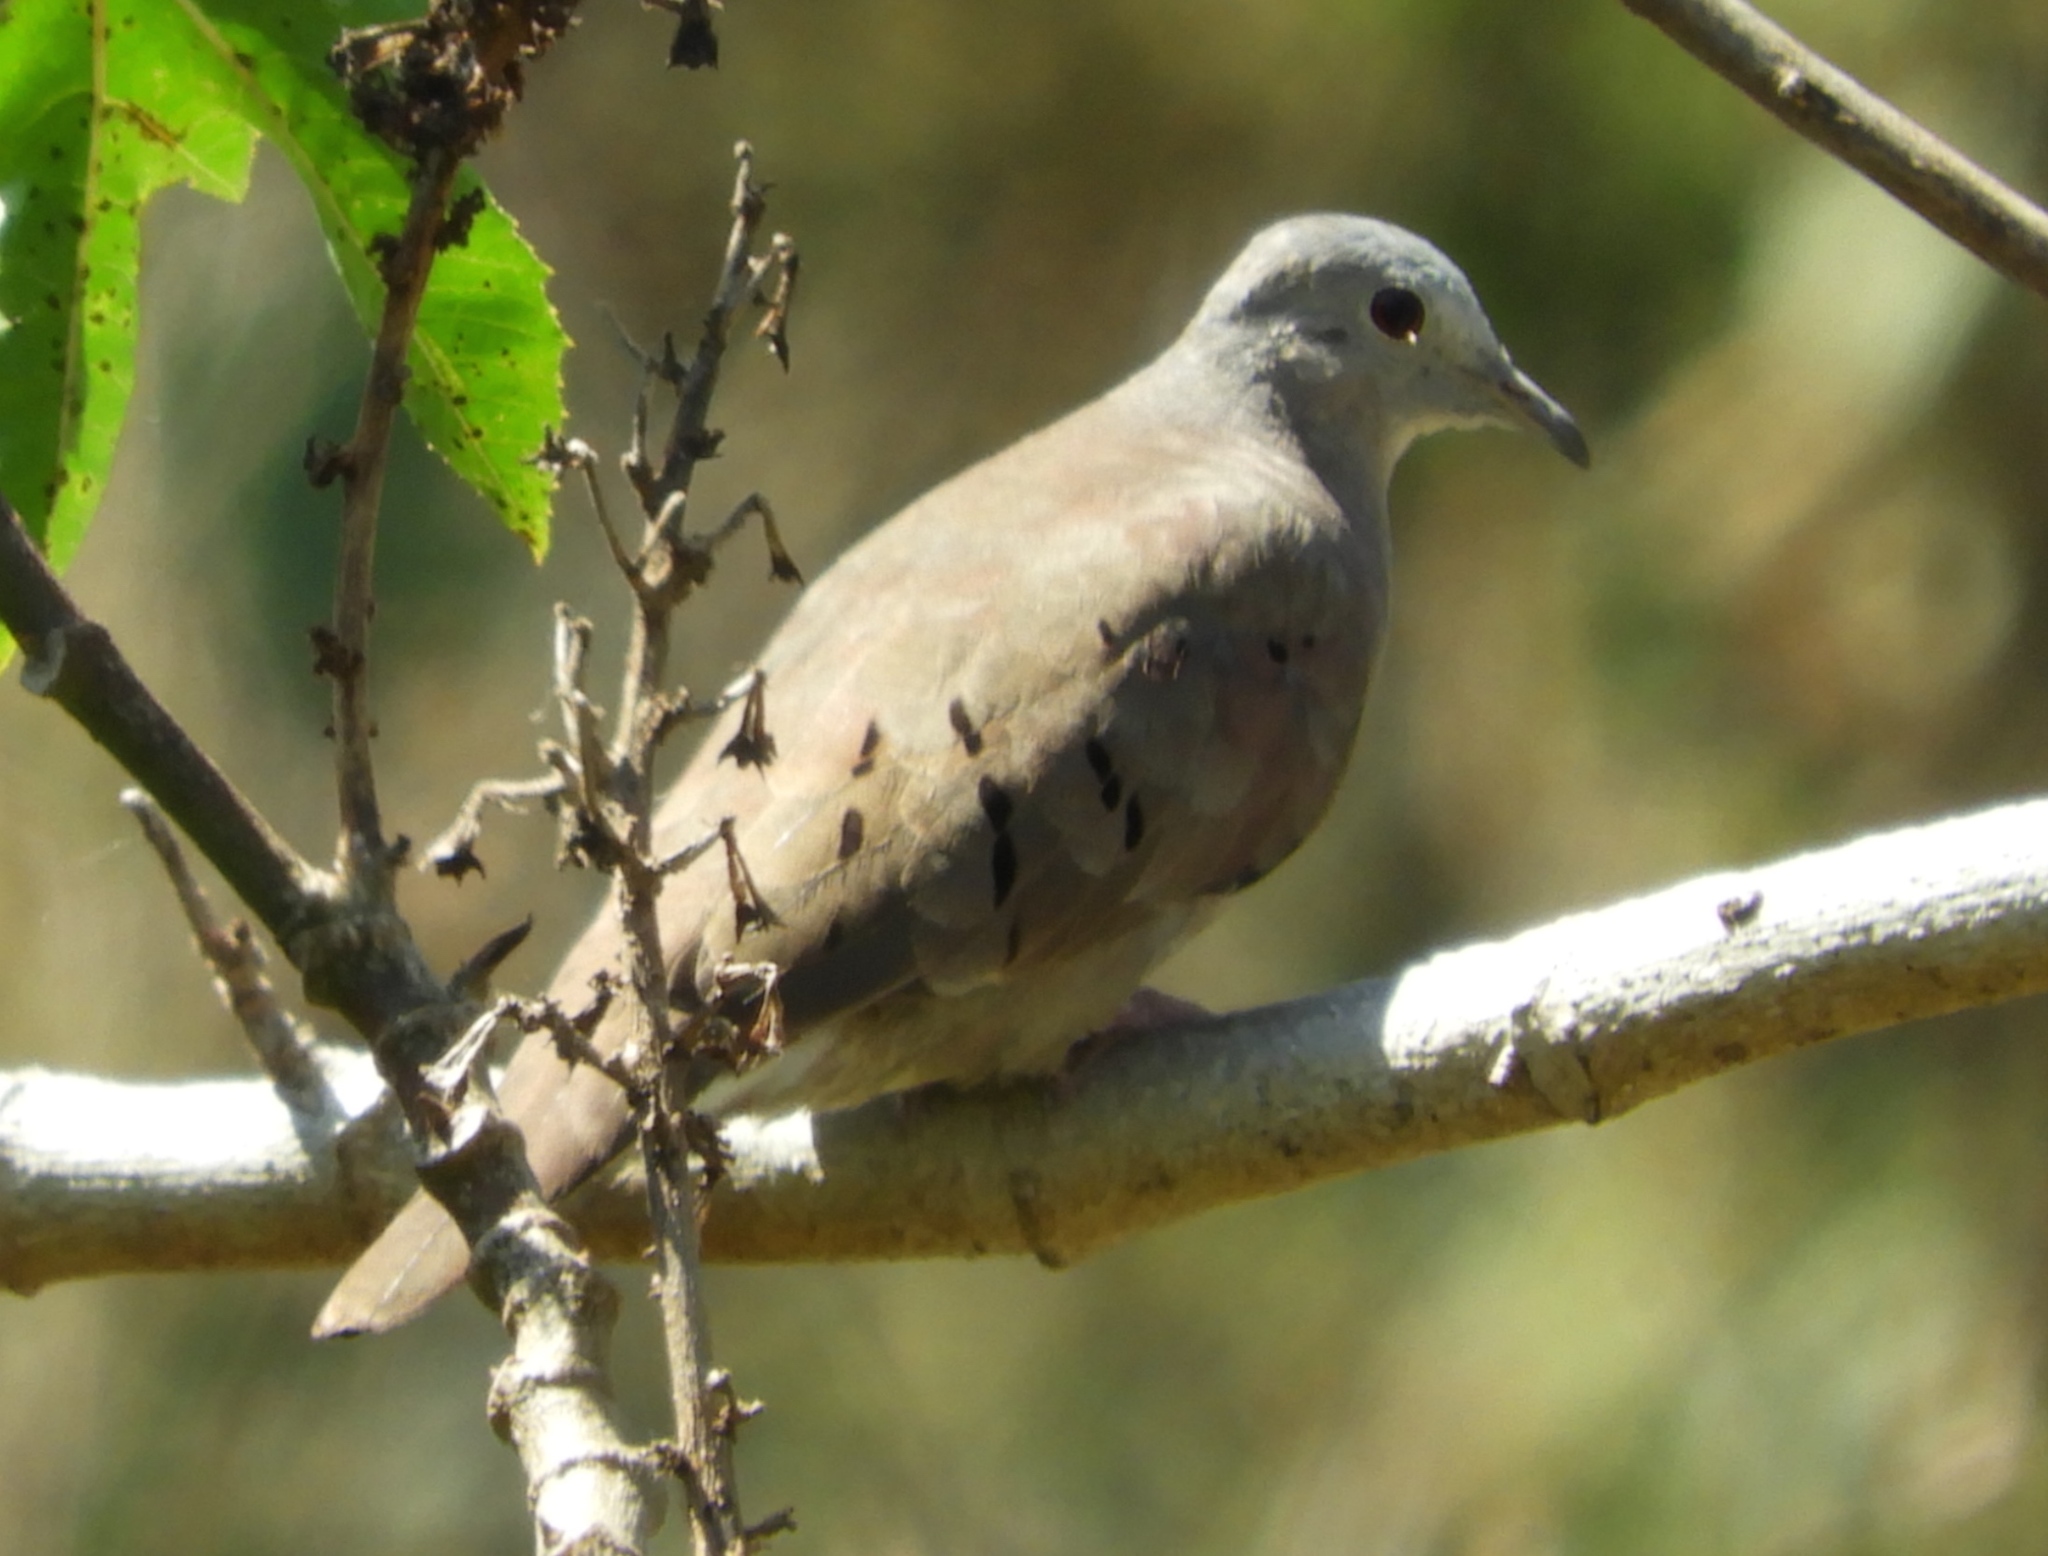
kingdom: Animalia
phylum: Chordata
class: Aves
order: Columbiformes
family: Columbidae
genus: Columbina
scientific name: Columbina talpacoti
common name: Ruddy ground dove
